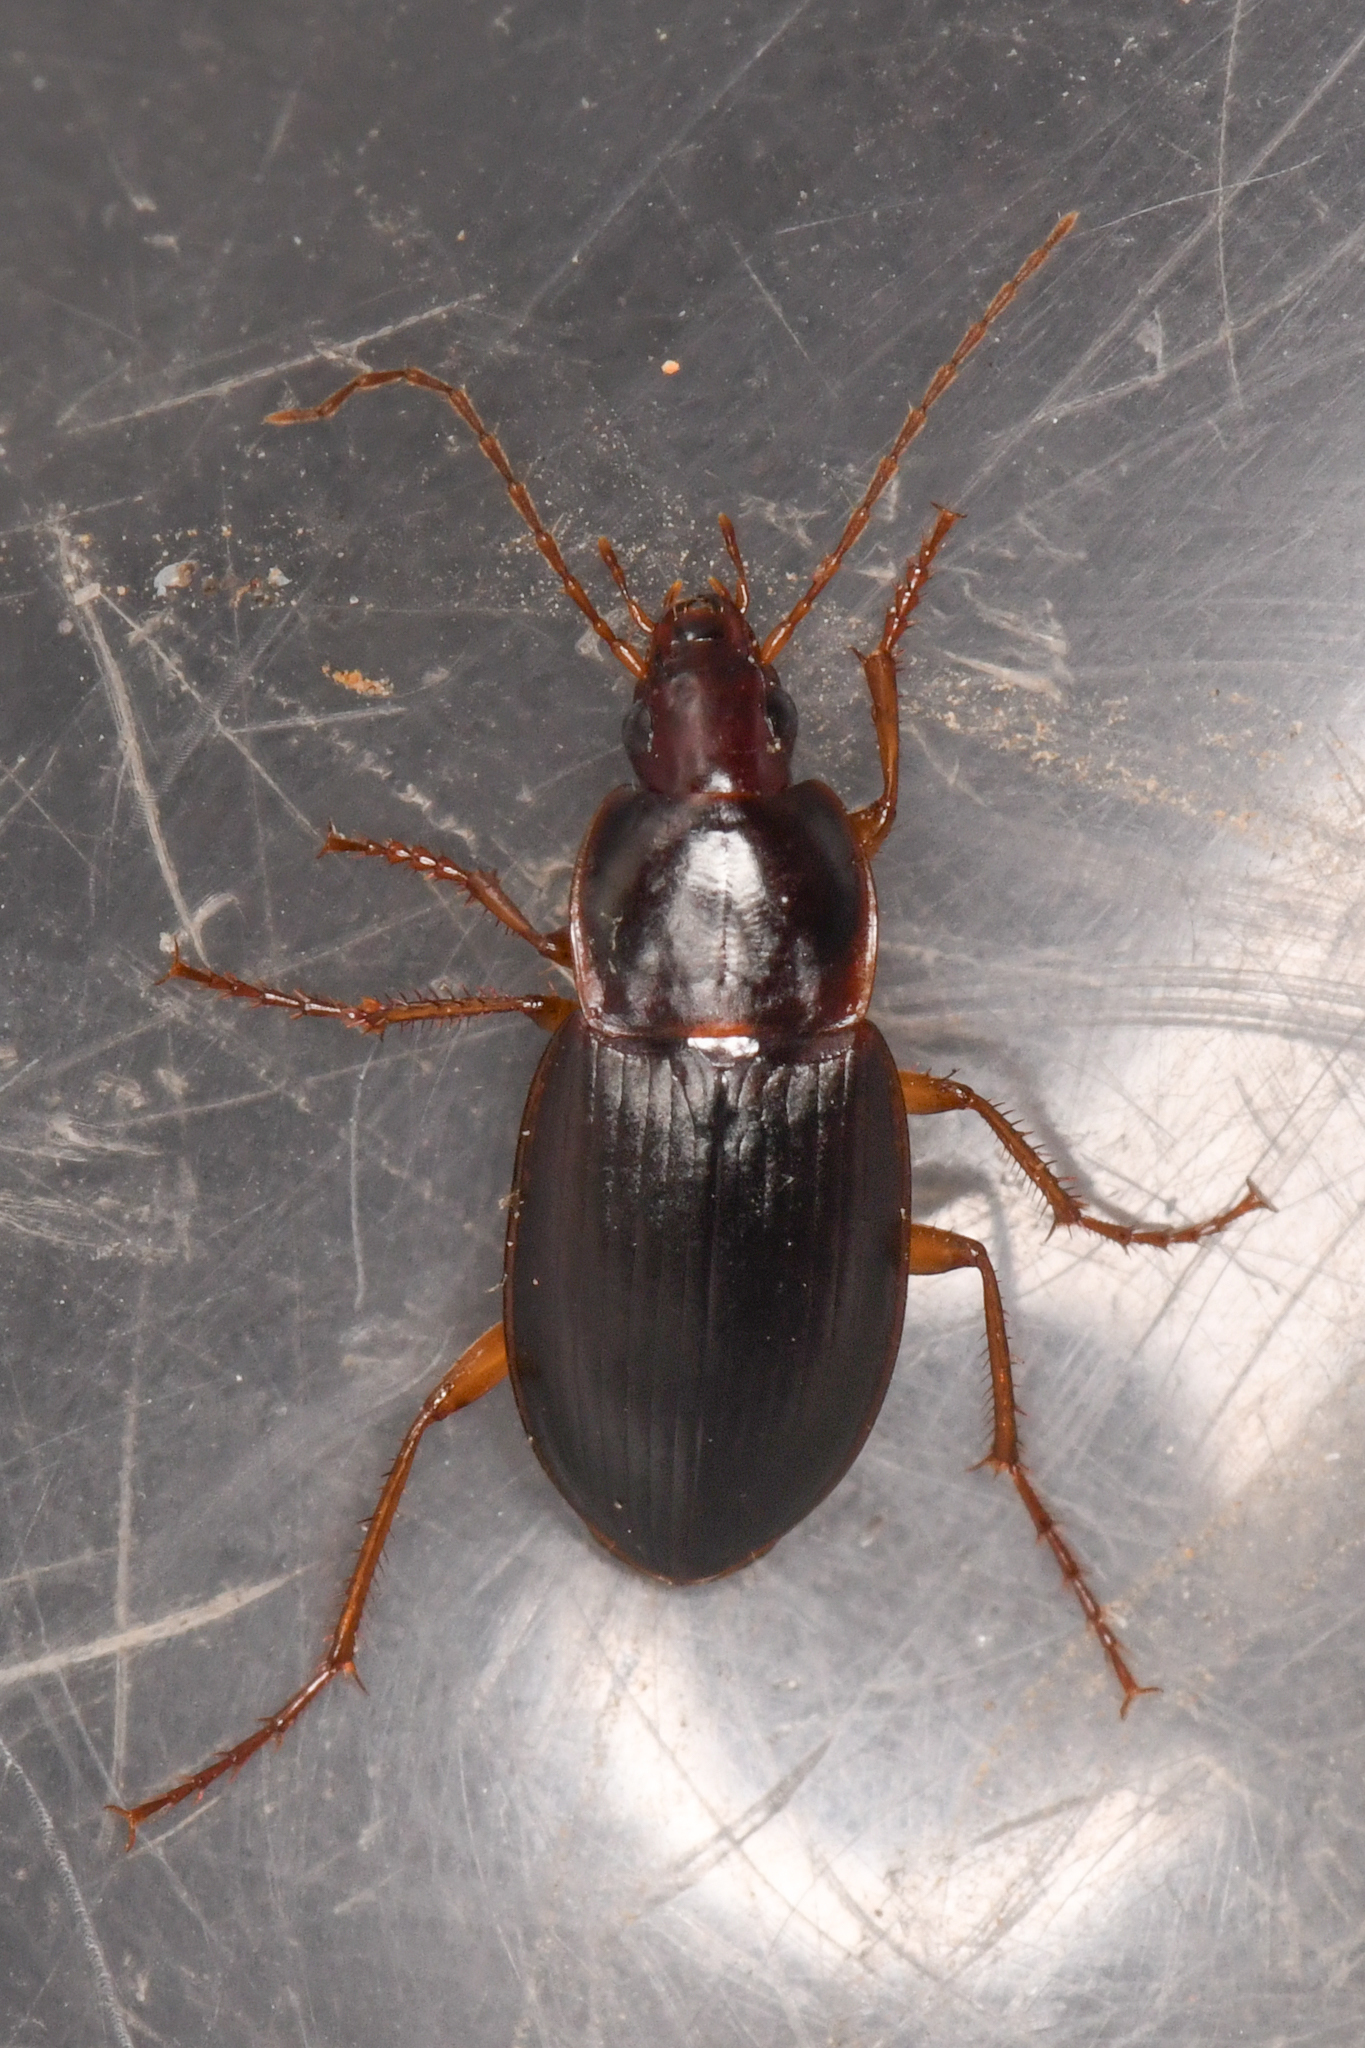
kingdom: Animalia
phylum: Arthropoda
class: Insecta
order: Coleoptera
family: Carabidae
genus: Calathus
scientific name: Calathus ruficollis
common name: Red-collared harp ground beetle
